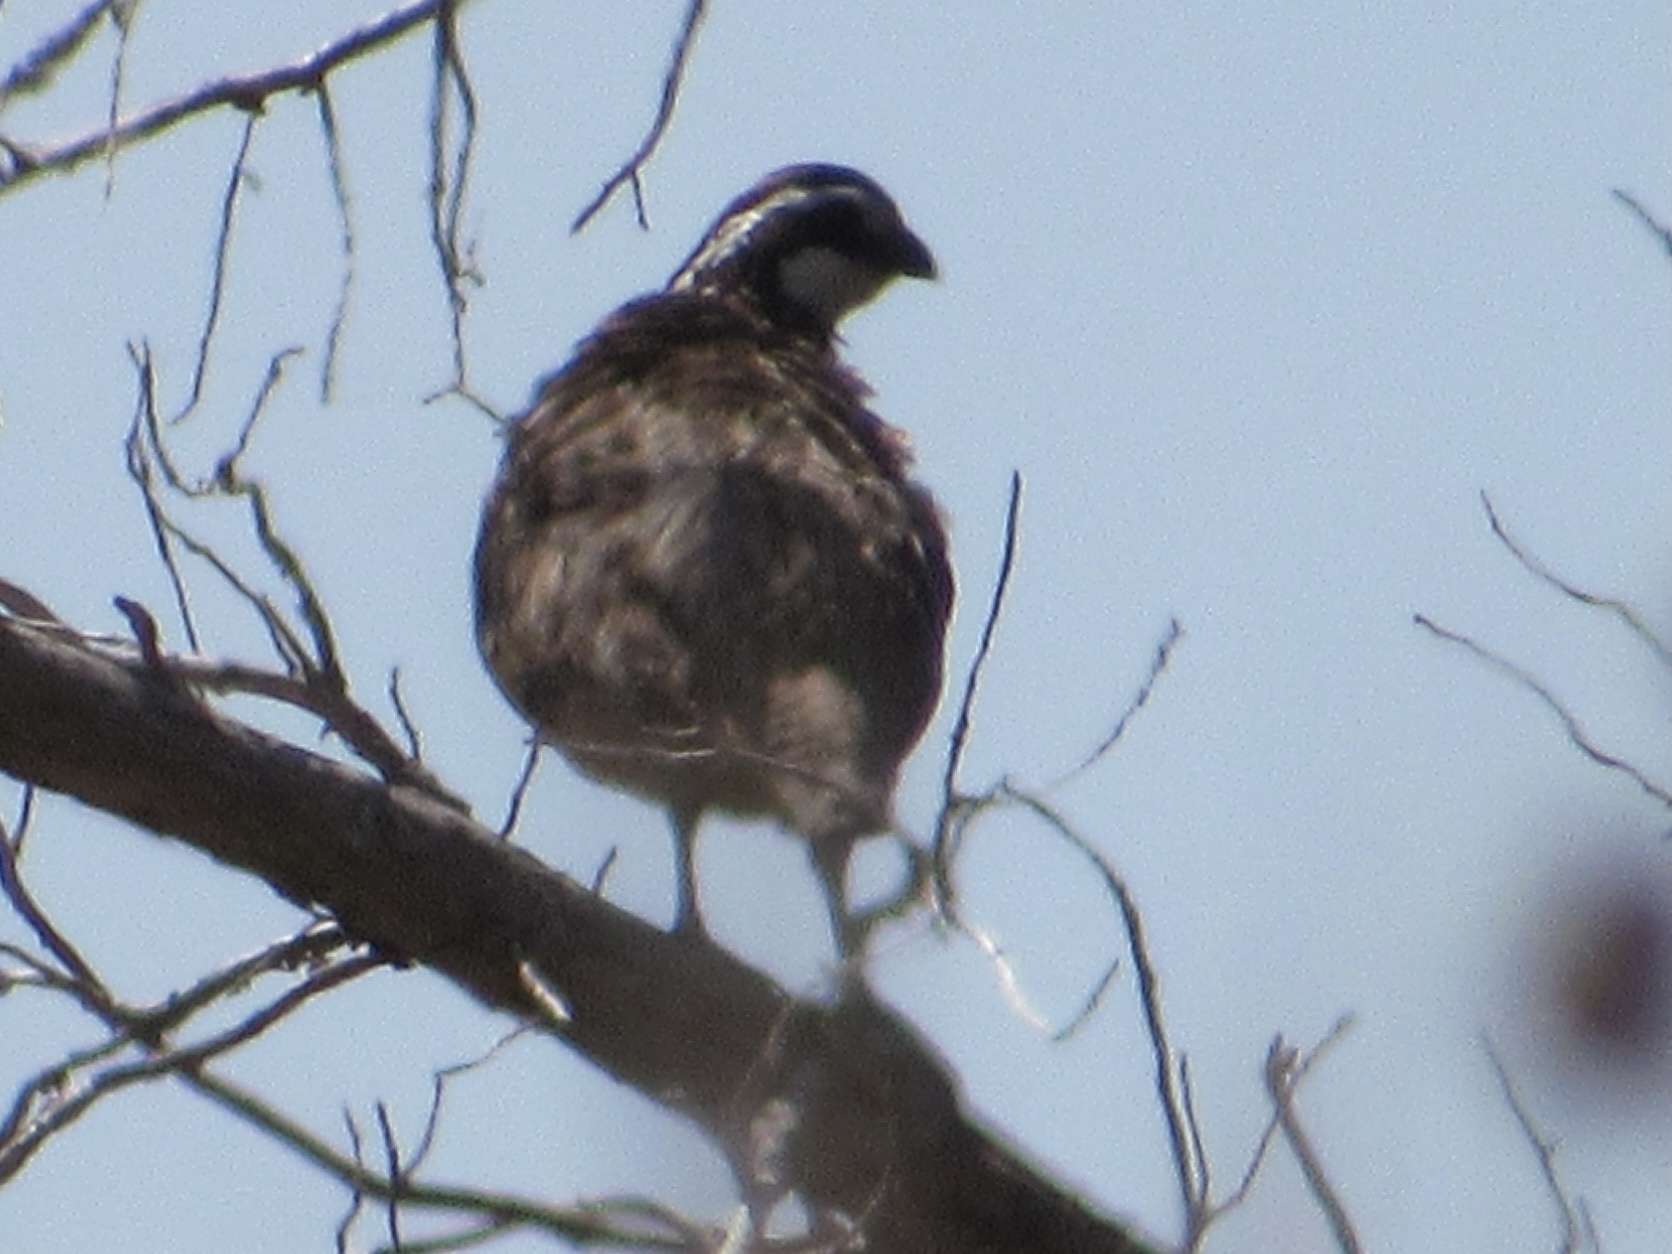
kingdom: Animalia
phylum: Chordata
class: Aves
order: Galliformes
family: Odontophoridae
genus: Colinus
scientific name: Colinus virginianus
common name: Northern bobwhite
